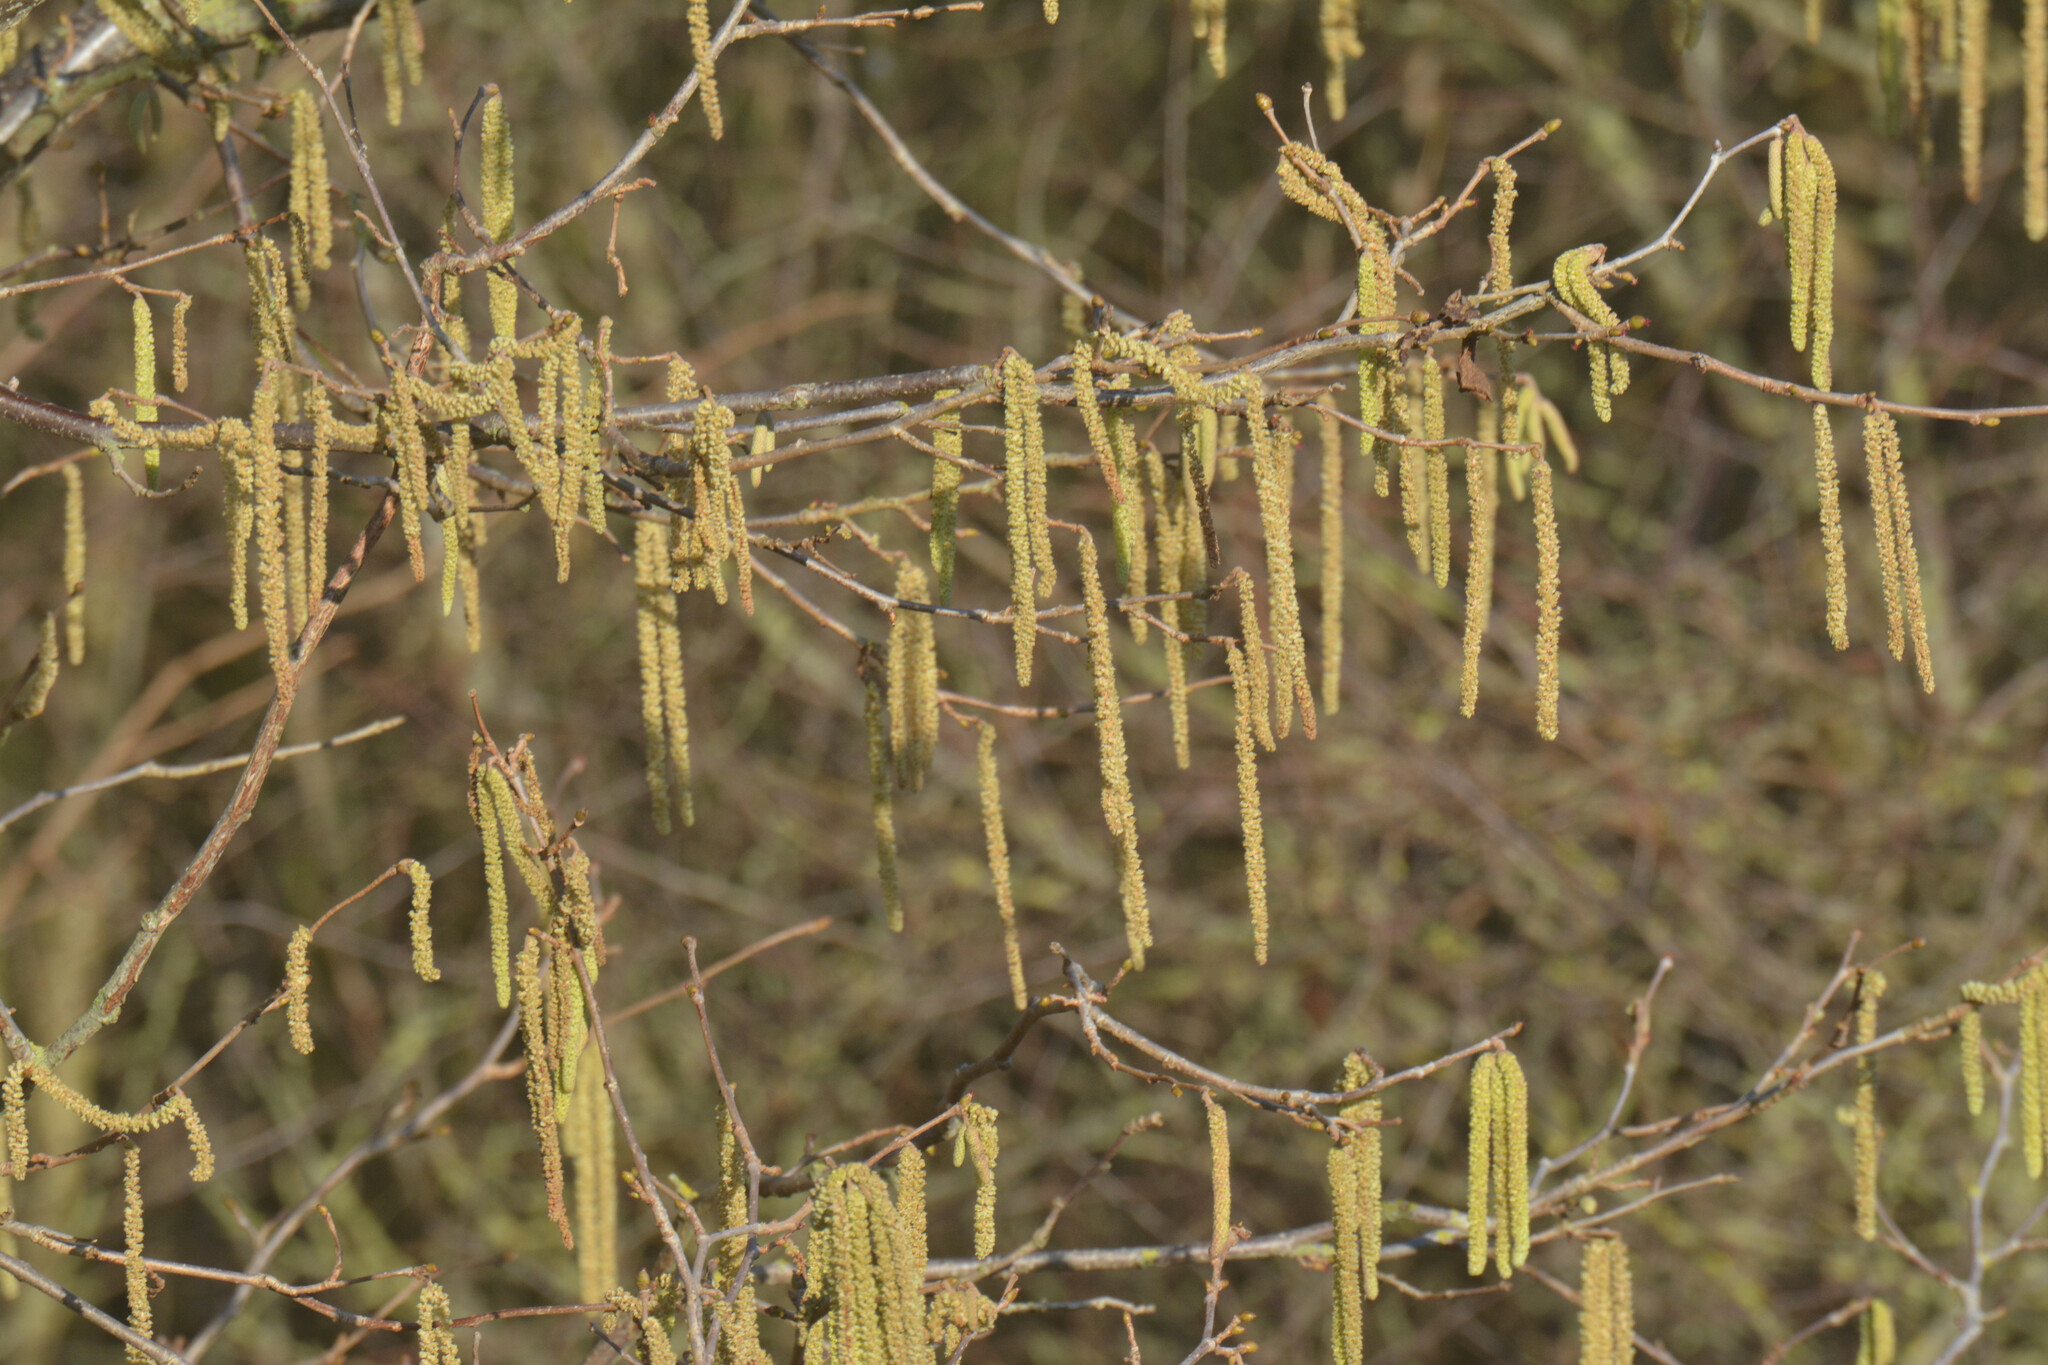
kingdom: Plantae
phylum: Tracheophyta
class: Magnoliopsida
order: Fagales
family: Betulaceae
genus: Corylus
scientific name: Corylus avellana
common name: European hazel
